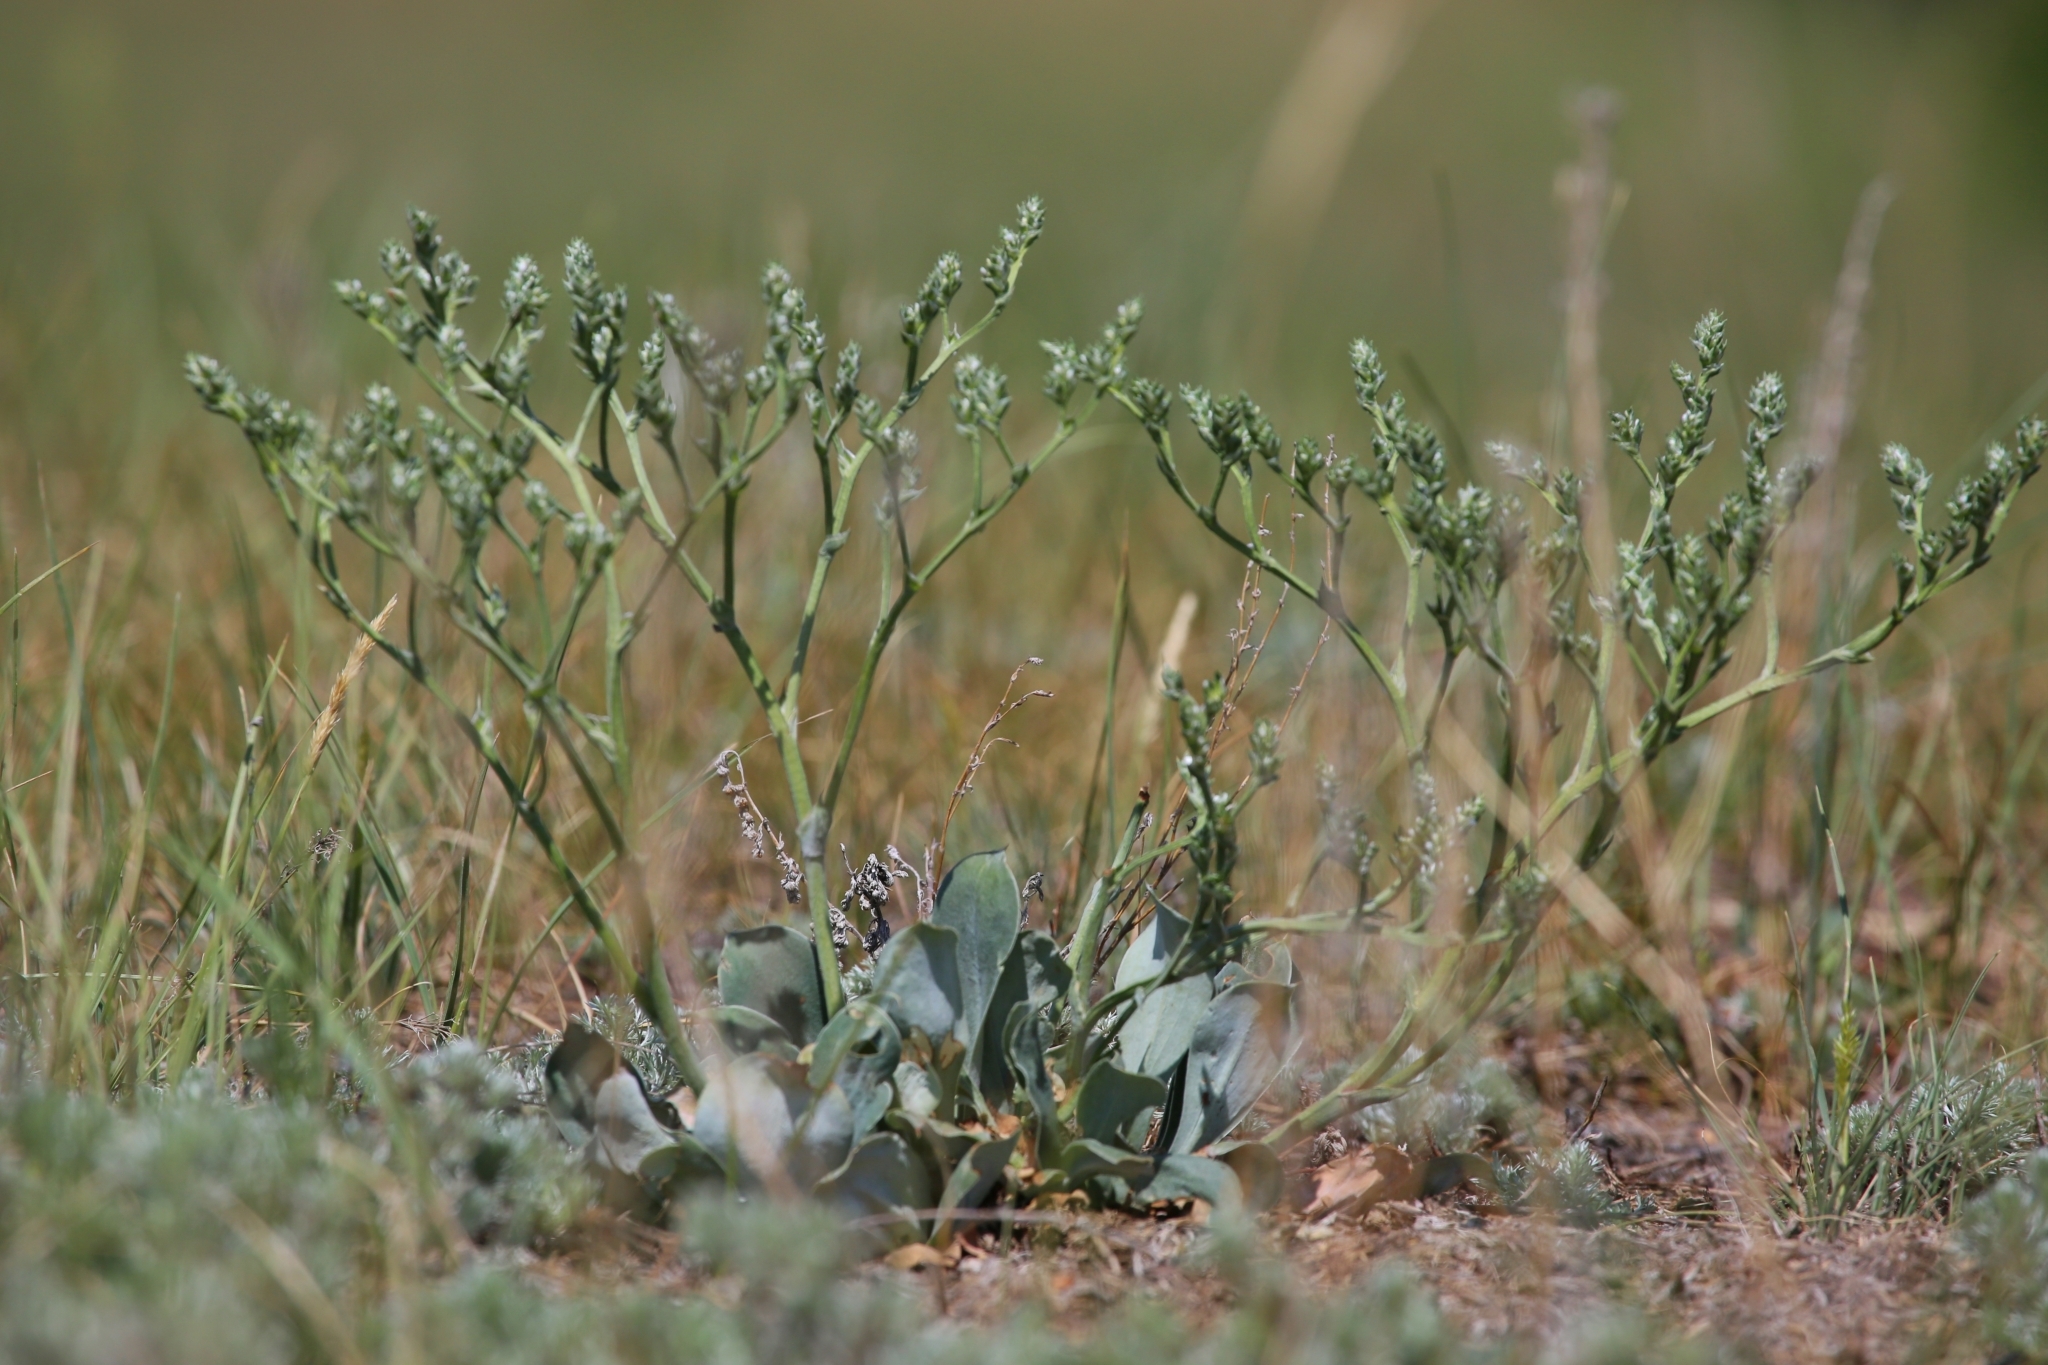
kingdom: Plantae
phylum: Tracheophyta
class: Magnoliopsida
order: Caryophyllales
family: Plumbaginaceae
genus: Goniolimon
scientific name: Goniolimon speciosum
